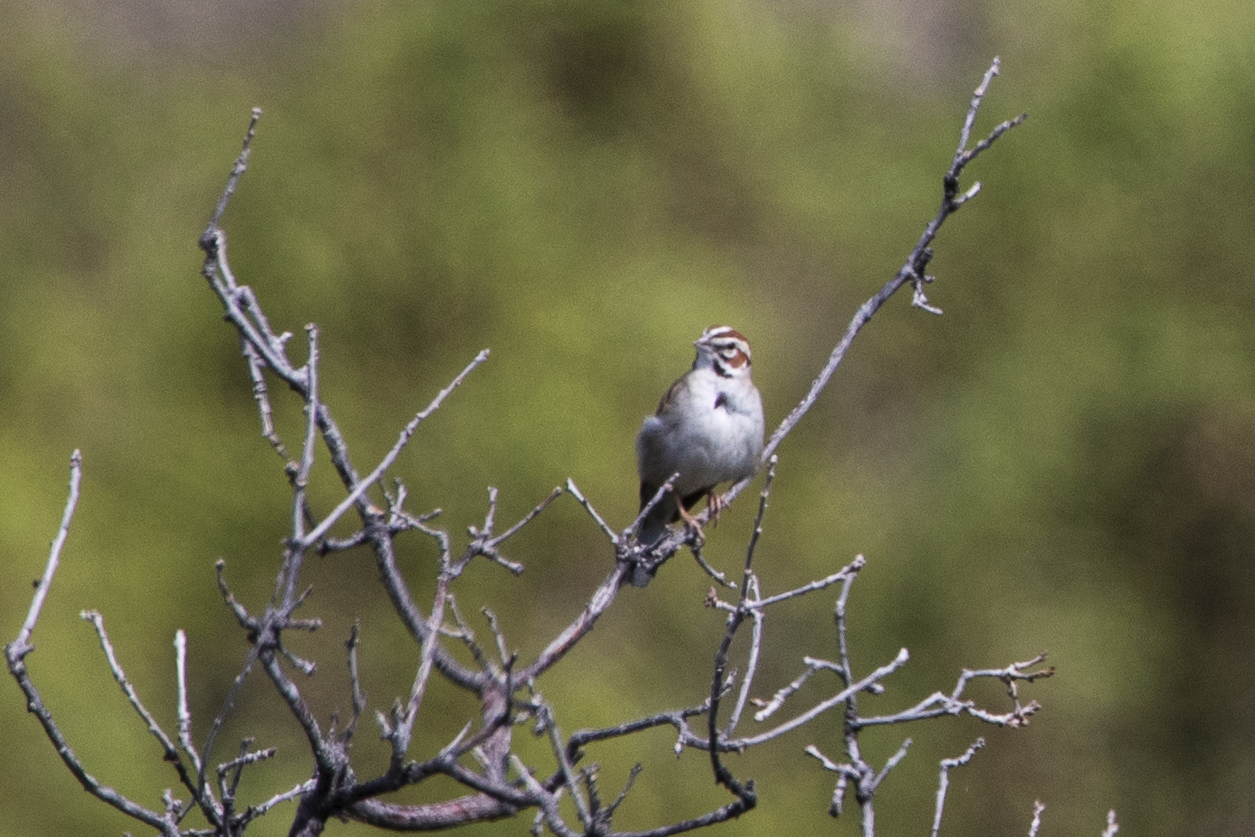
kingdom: Animalia
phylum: Chordata
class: Aves
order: Passeriformes
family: Passerellidae
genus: Chondestes
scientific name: Chondestes grammacus
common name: Lark sparrow
